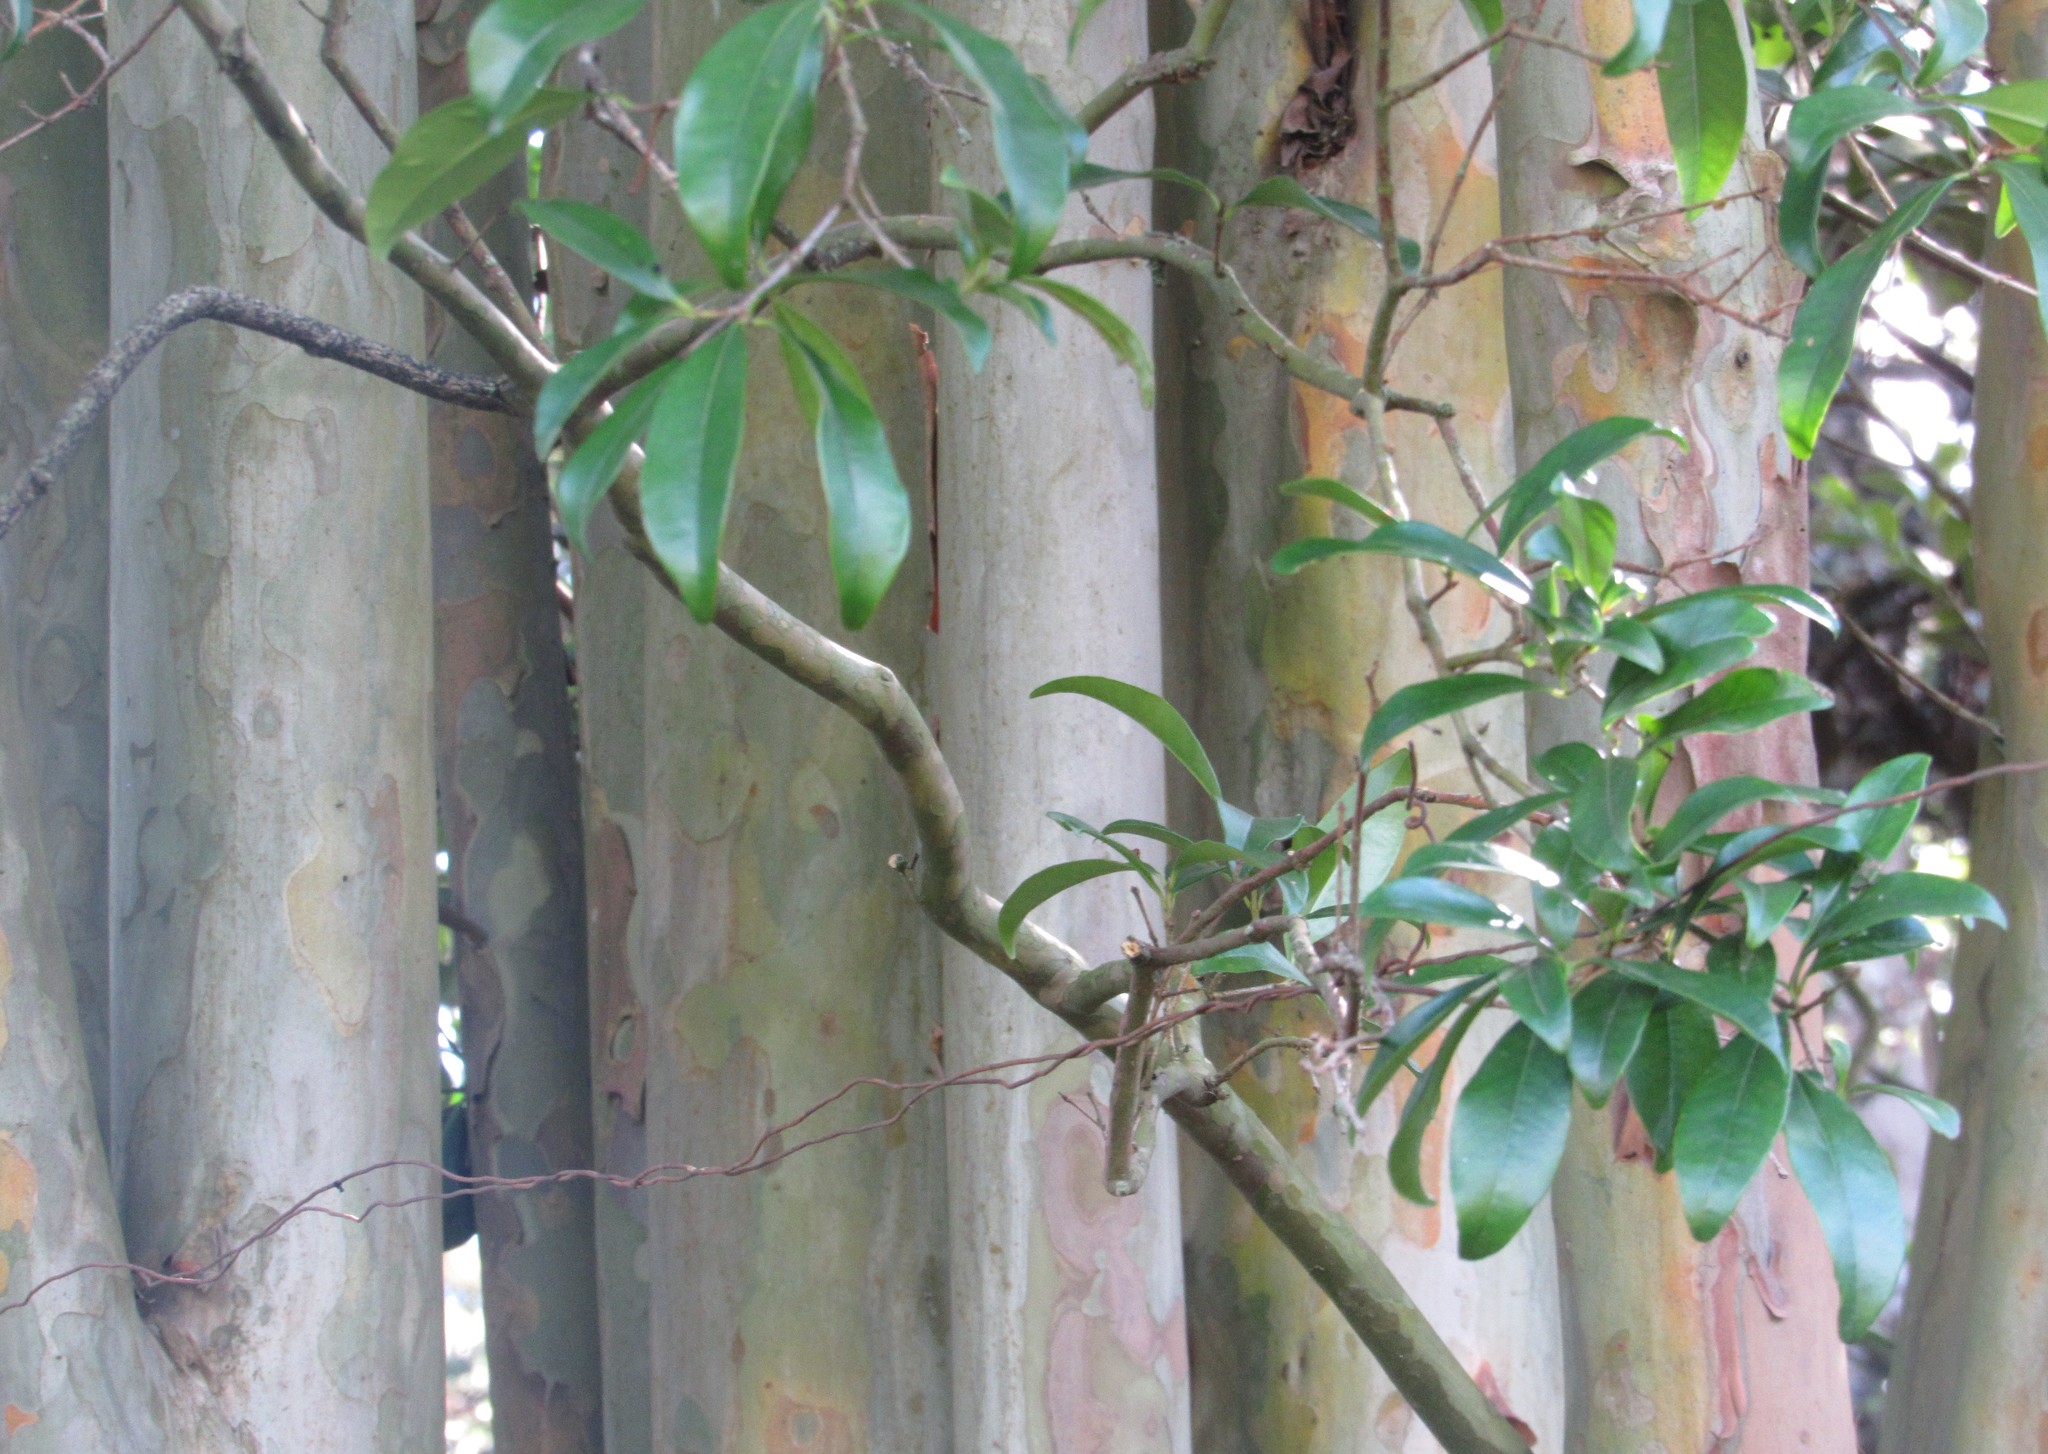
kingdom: Plantae
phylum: Tracheophyta
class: Magnoliopsida
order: Myrtales
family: Myrtaceae
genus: Eugenia
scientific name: Eugenia involucrata
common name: Cherry-of-the-rio grande
